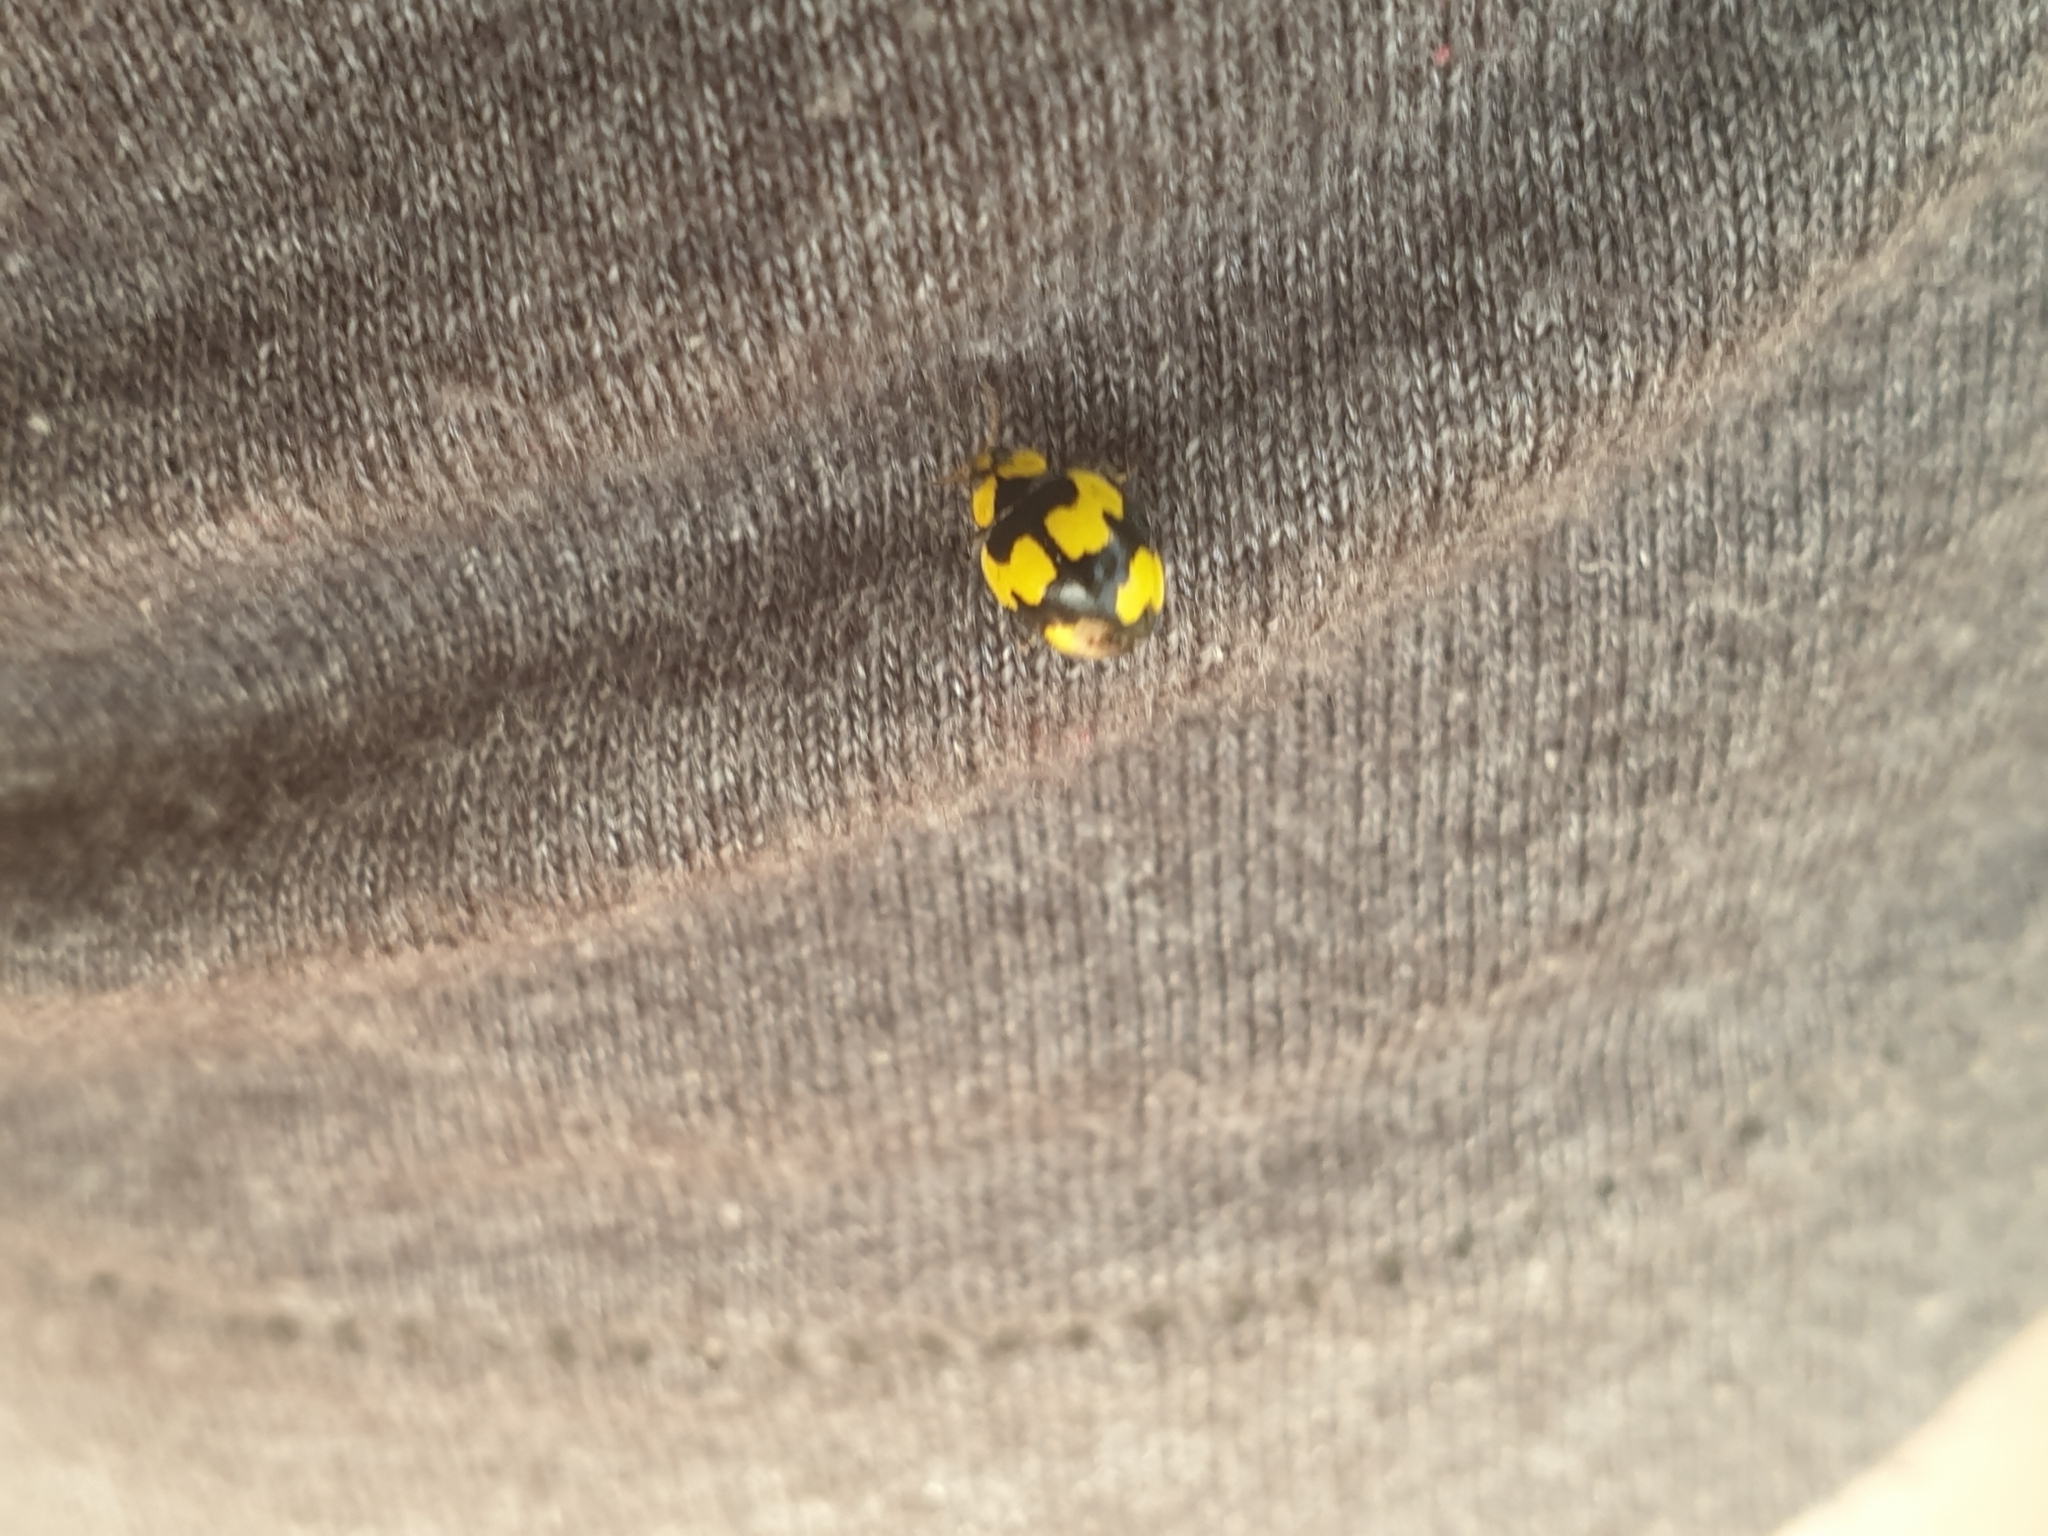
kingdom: Animalia
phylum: Arthropoda
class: Insecta
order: Coleoptera
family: Coccinellidae
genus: Illeis
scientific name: Illeis galbula
